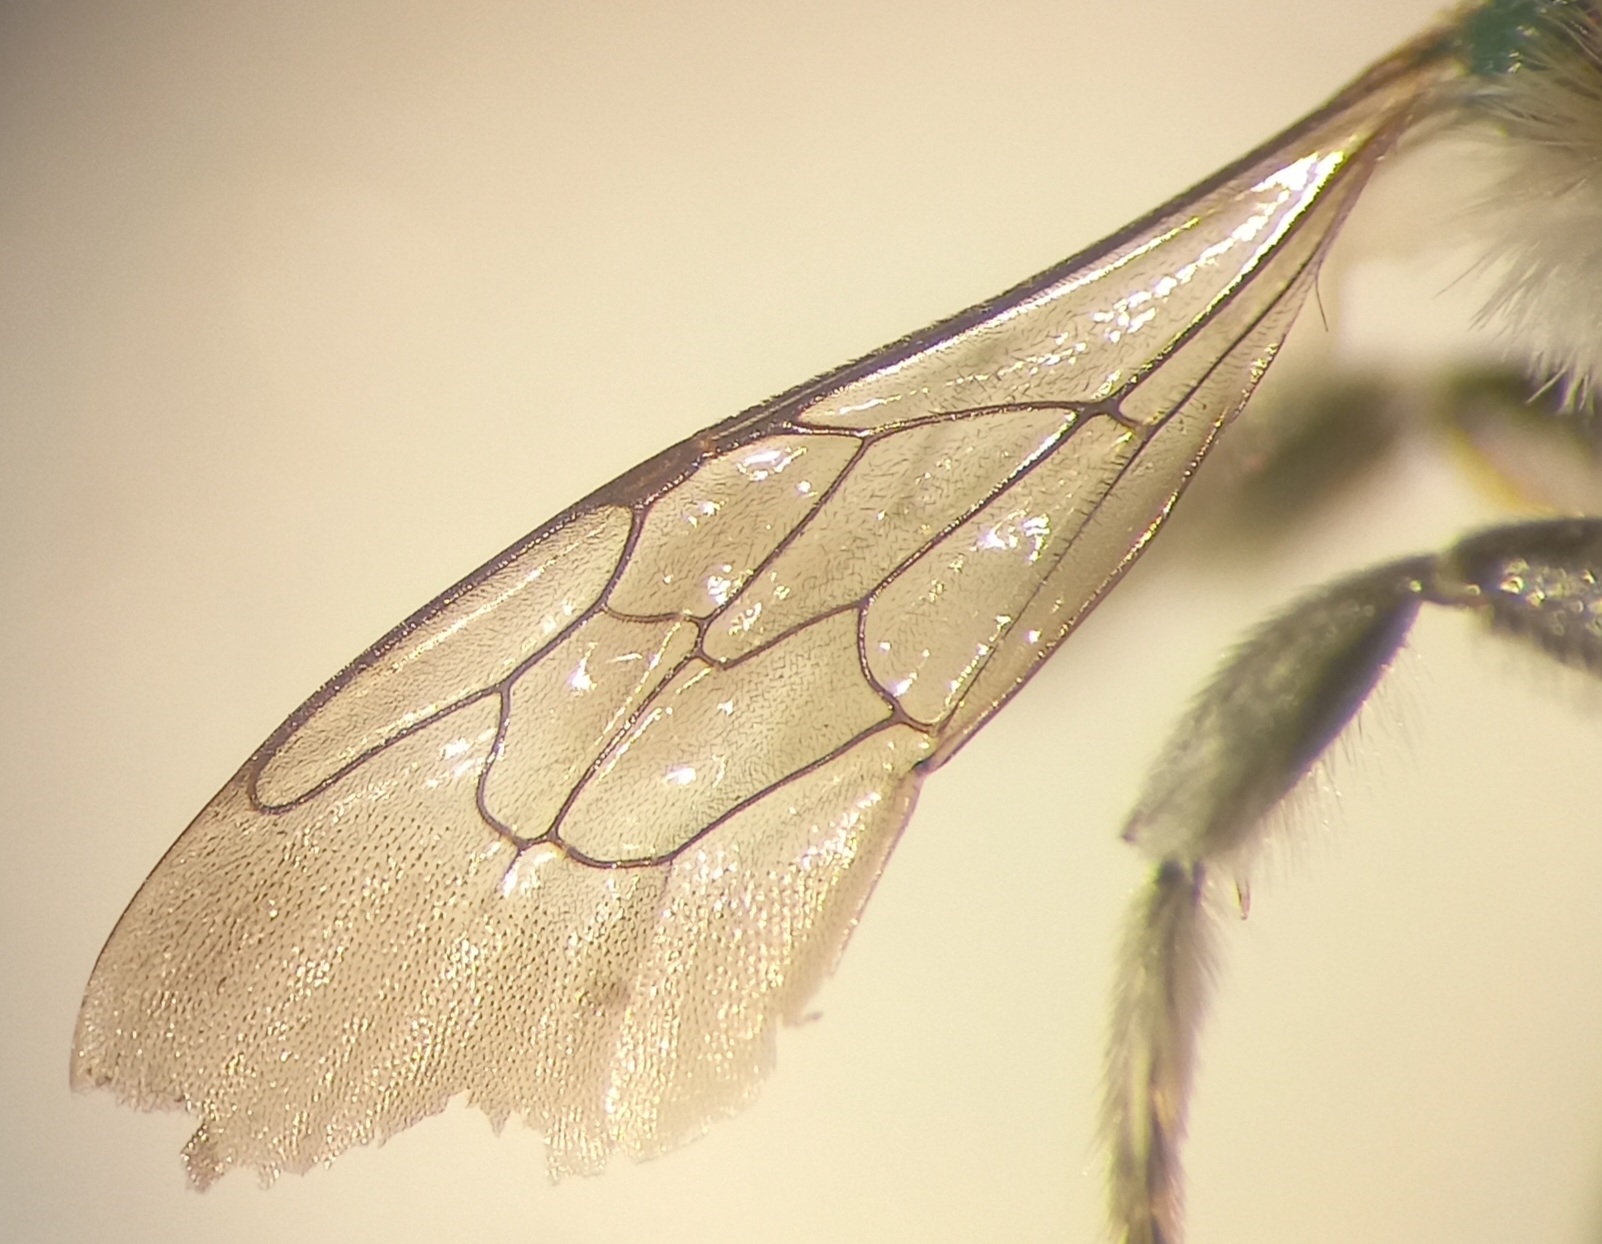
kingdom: Animalia
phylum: Arthropoda
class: Insecta
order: Hymenoptera
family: Megachilidae
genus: Megachile
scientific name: Megachile pilidens
